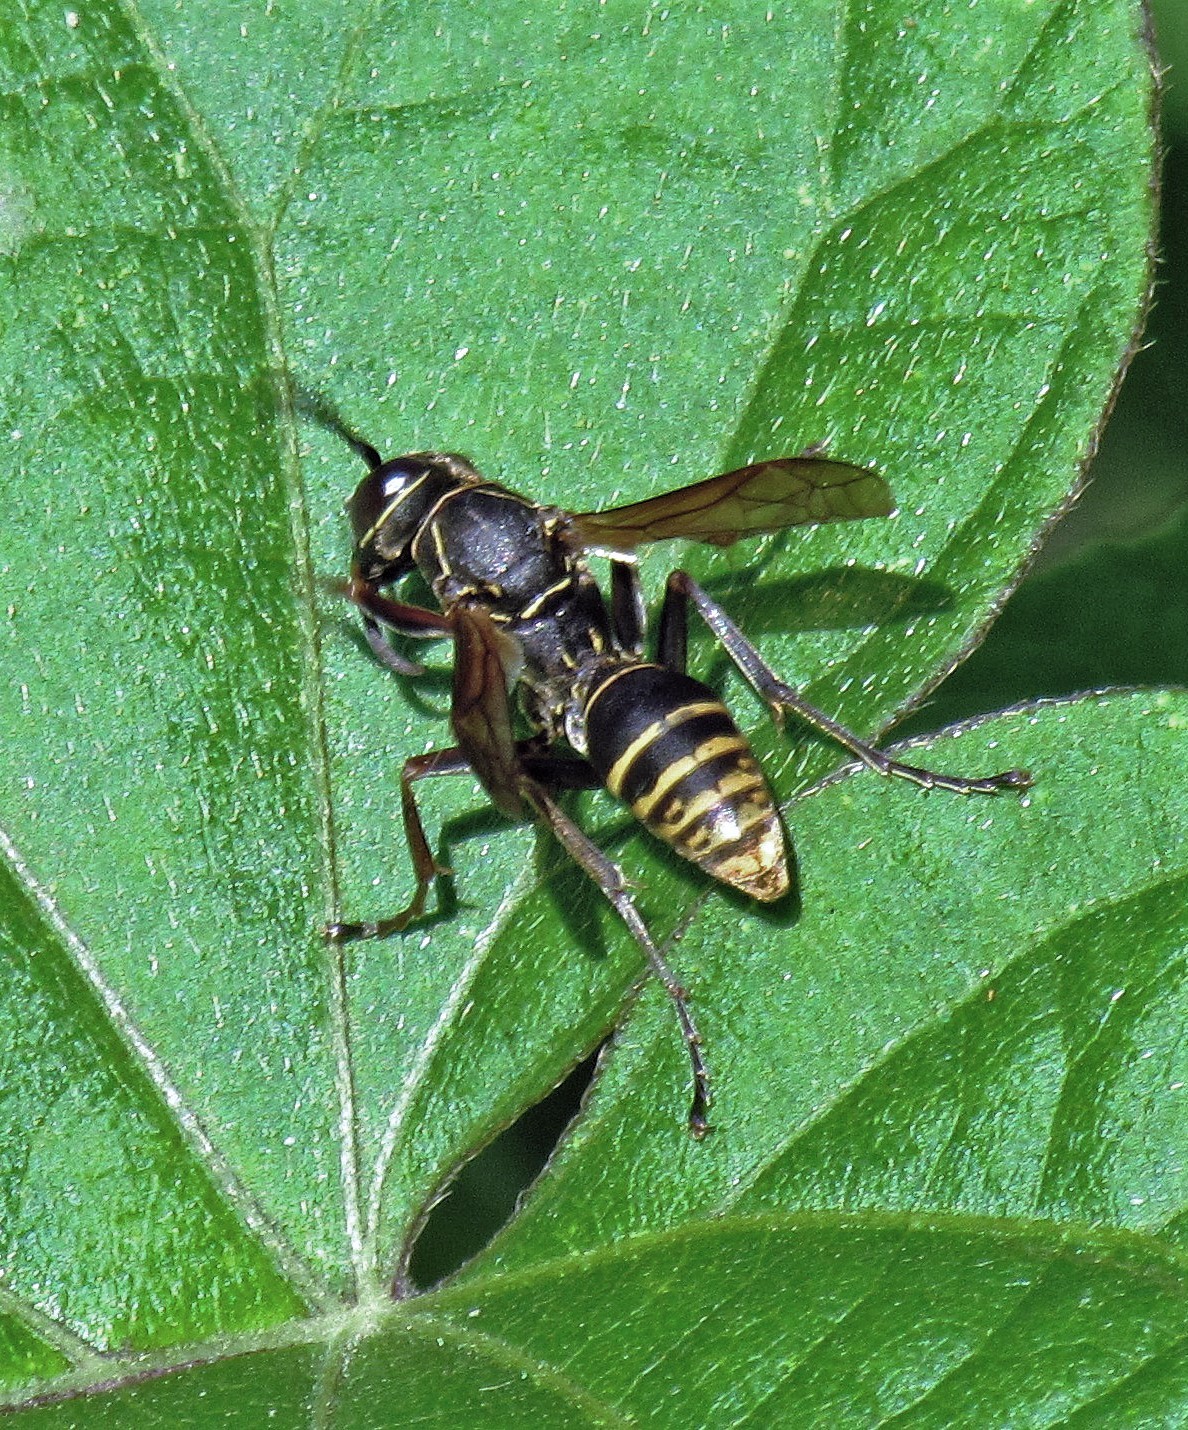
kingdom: Animalia
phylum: Arthropoda
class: Insecta
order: Hymenoptera
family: Eumenidae
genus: Polistes
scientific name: Polistes cinerascens
